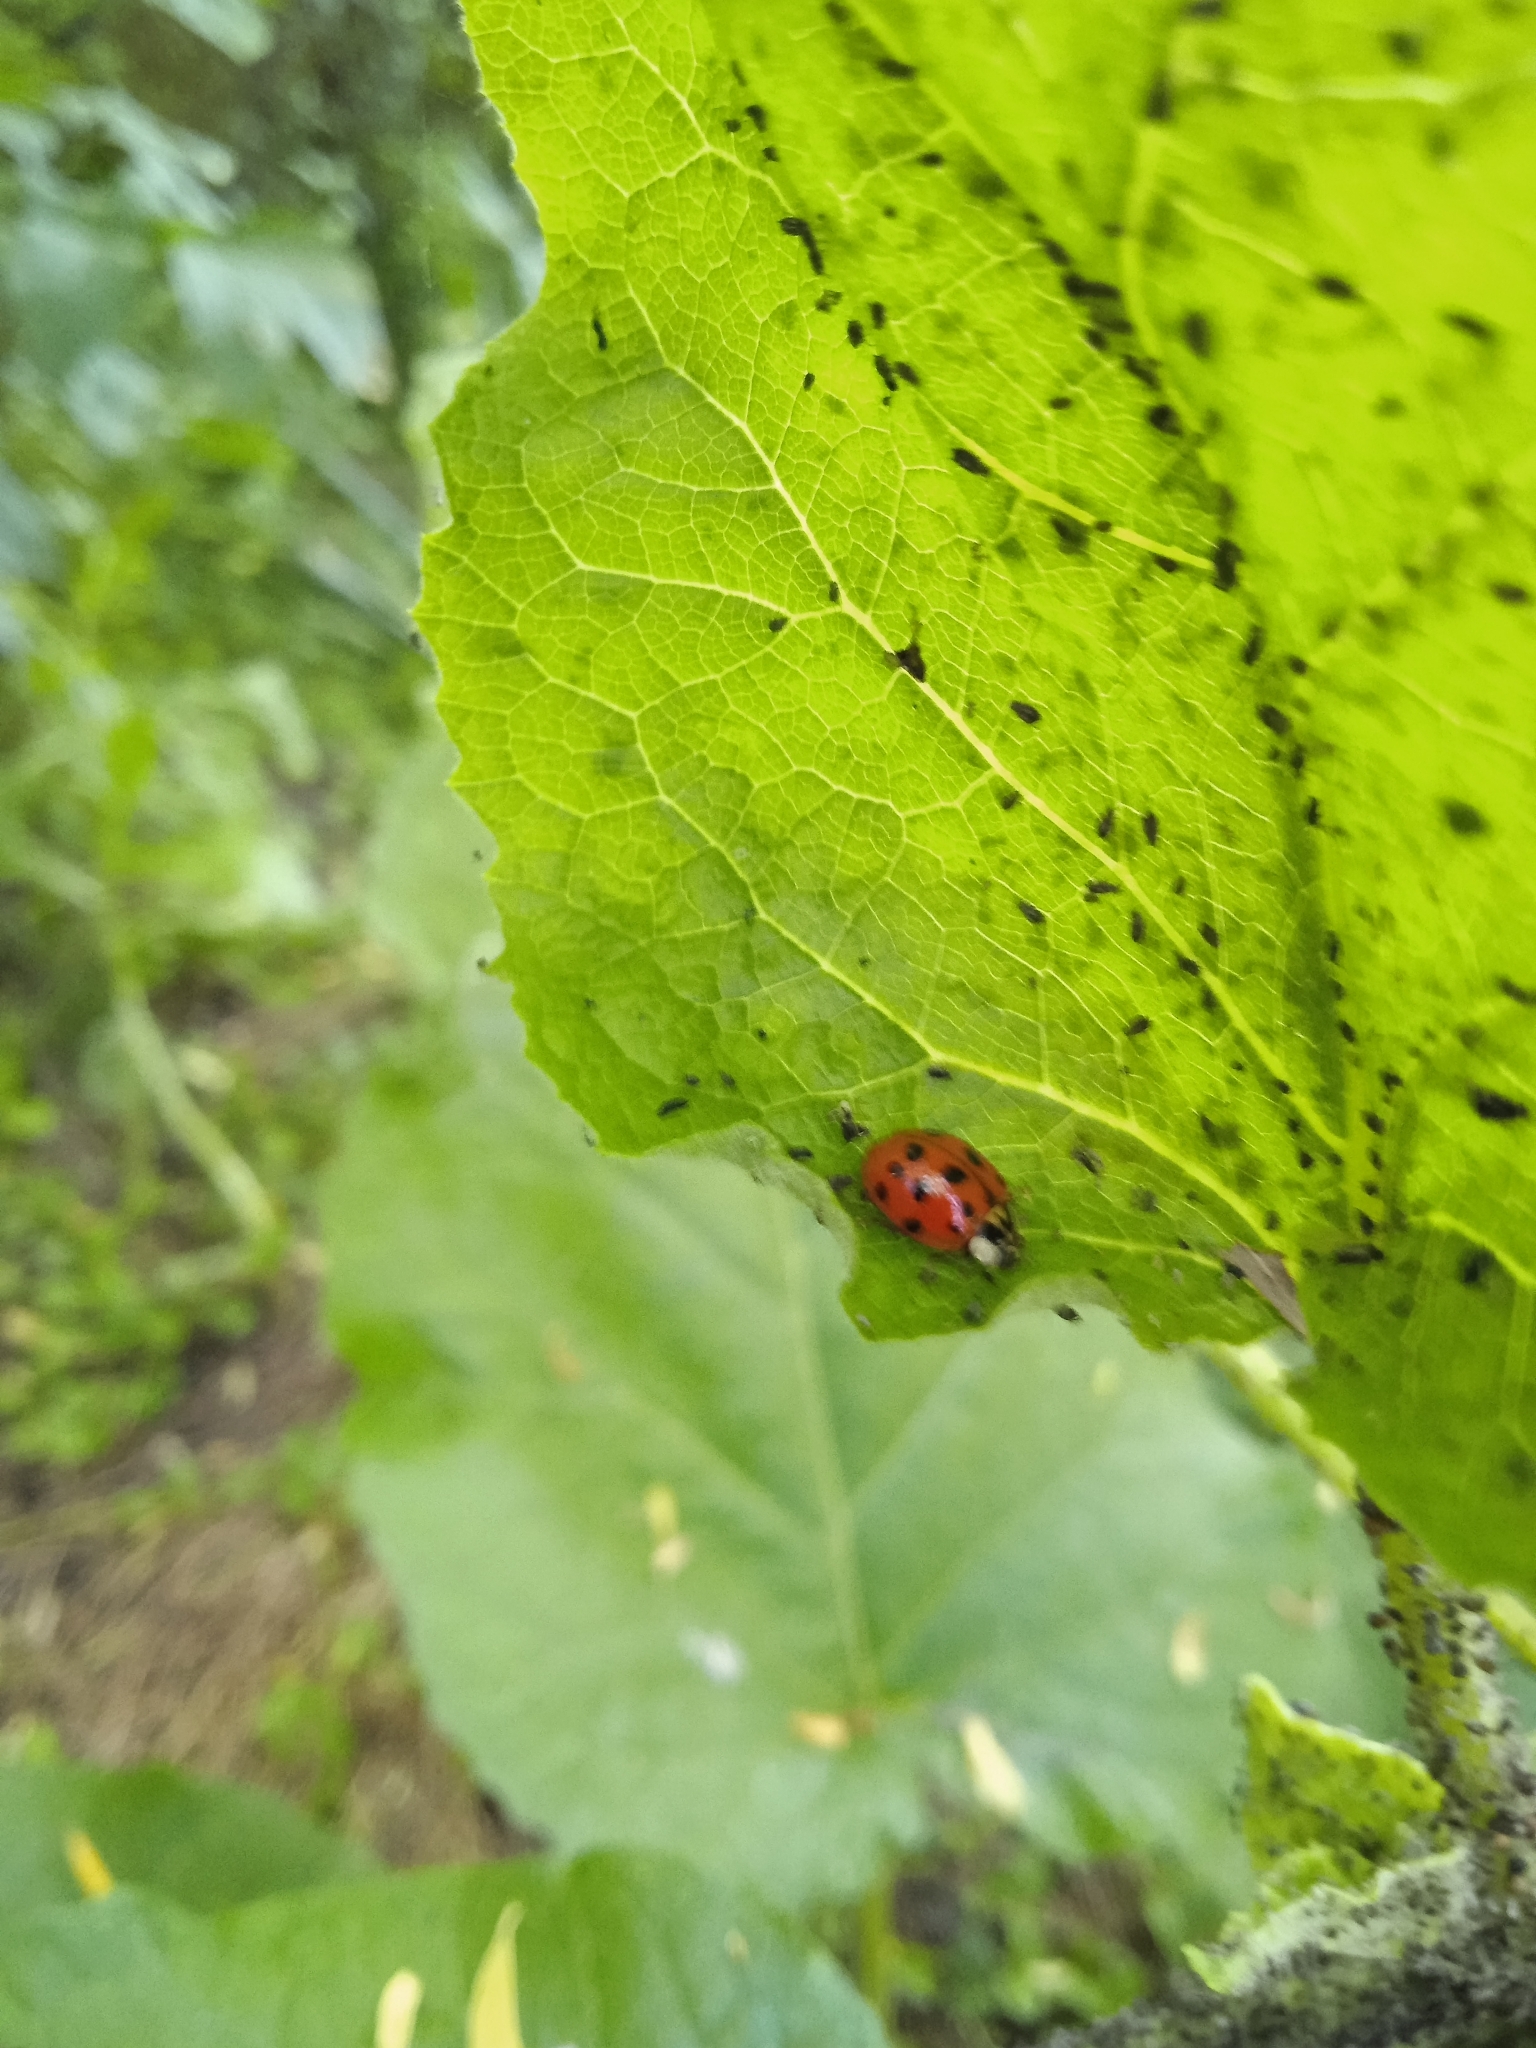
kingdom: Animalia
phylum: Arthropoda
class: Insecta
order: Coleoptera
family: Coccinellidae
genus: Harmonia
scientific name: Harmonia axyridis
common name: Harlequin ladybird
